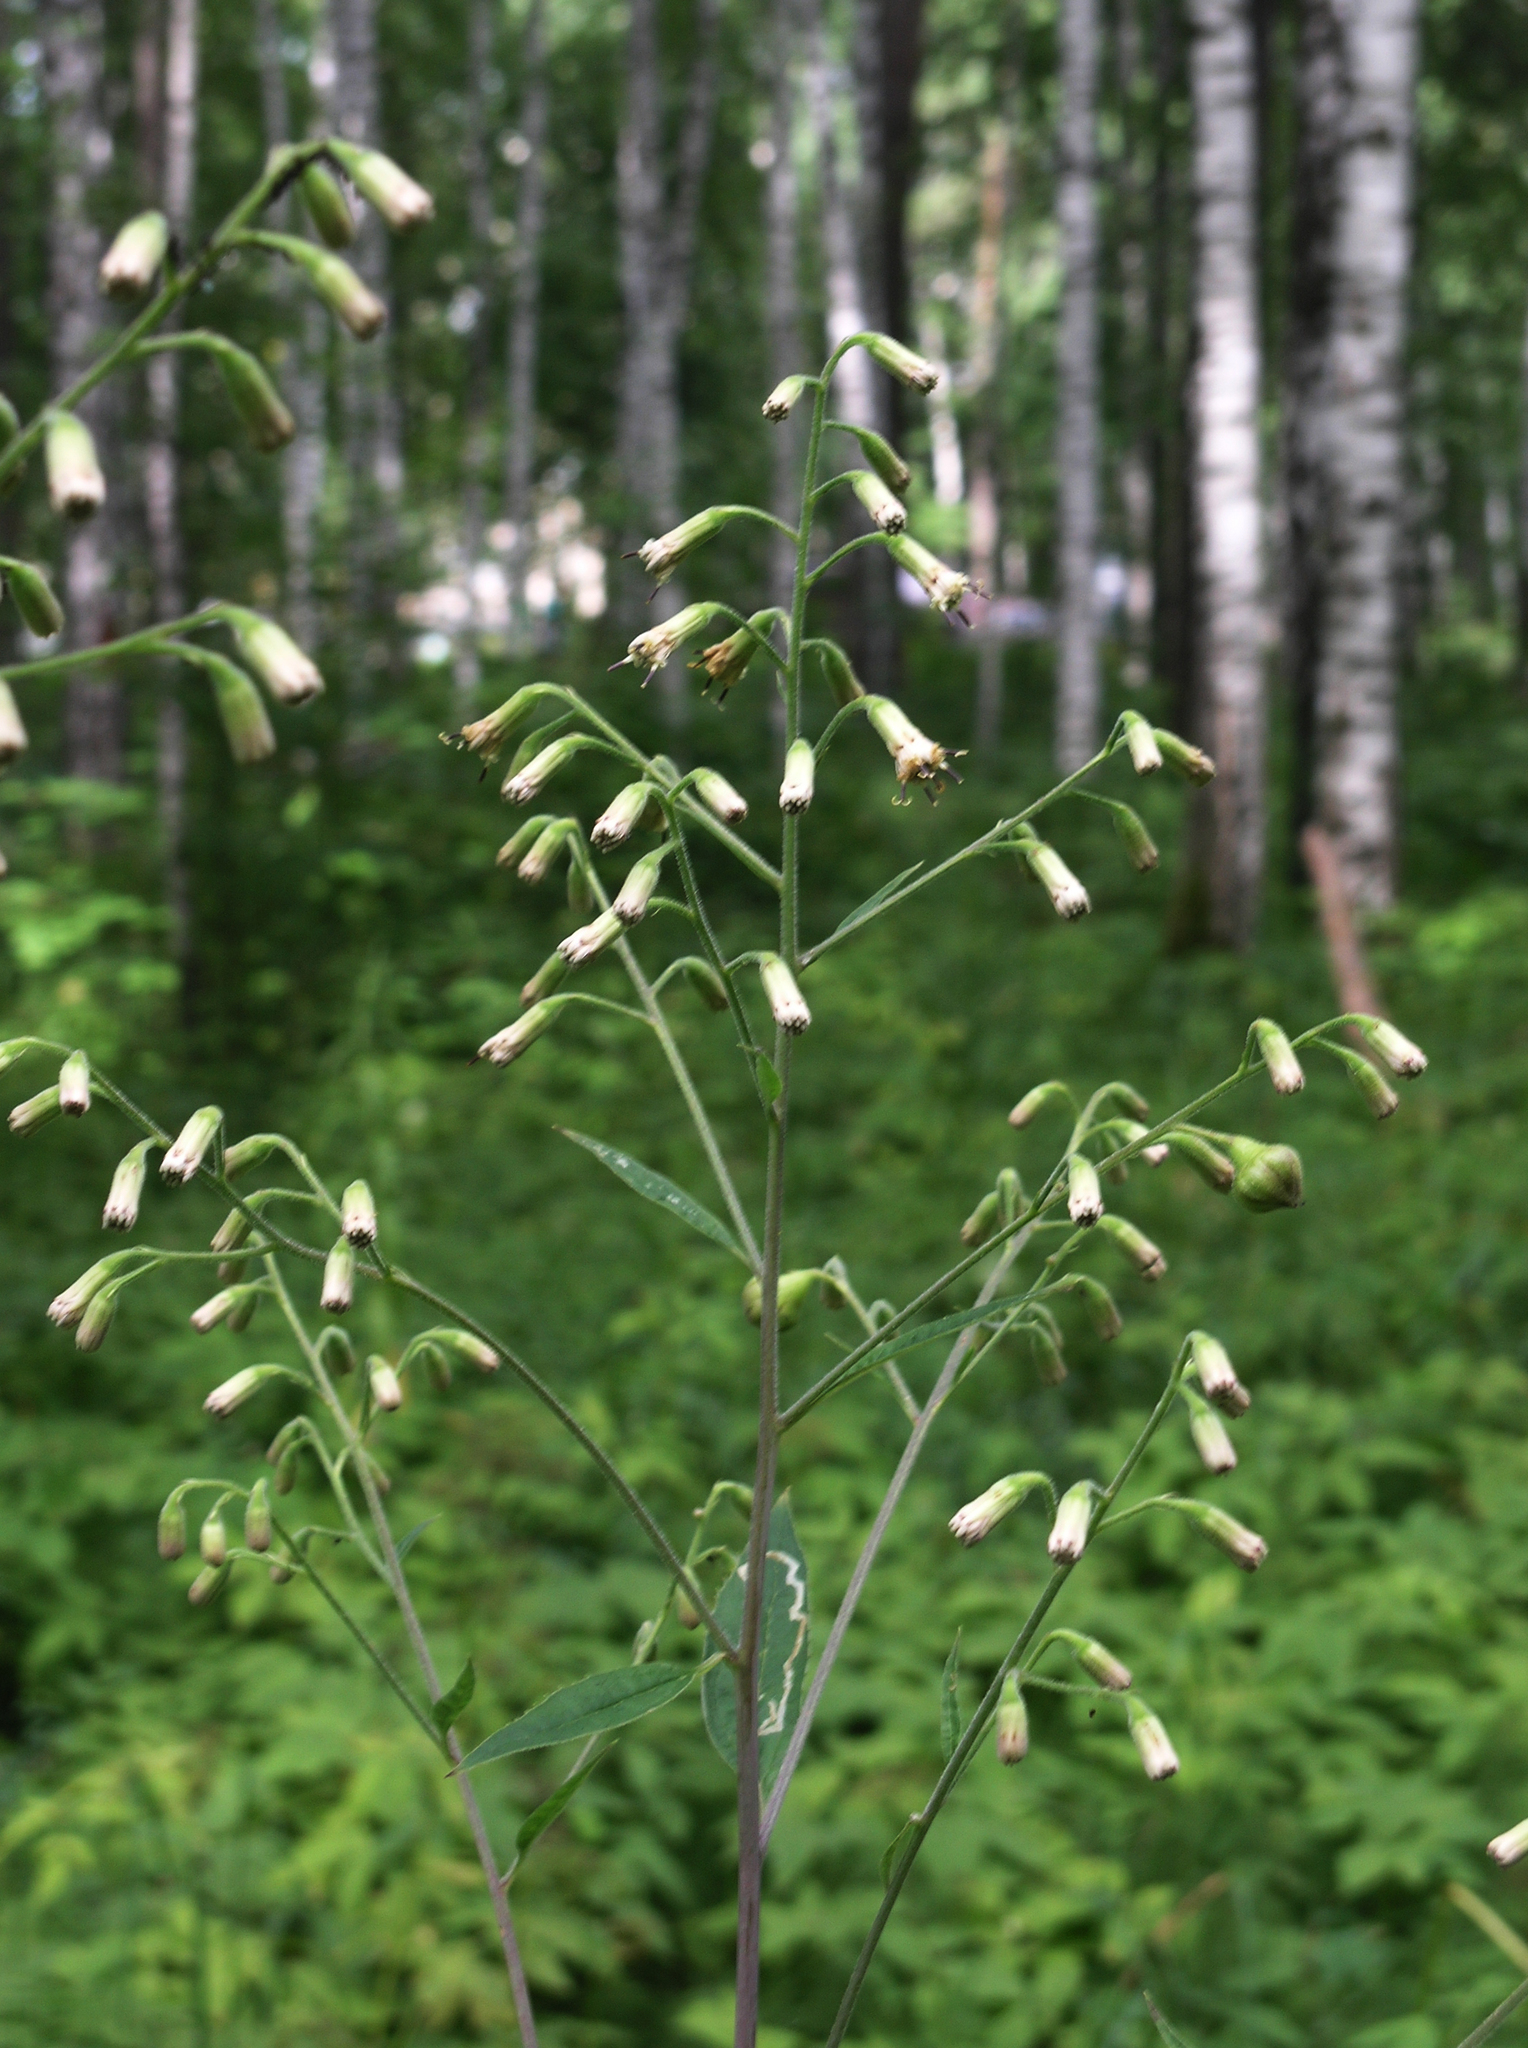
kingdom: Plantae
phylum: Tracheophyta
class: Magnoliopsida
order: Asterales
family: Asteraceae
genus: Parasenecio
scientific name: Parasenecio hastatus
